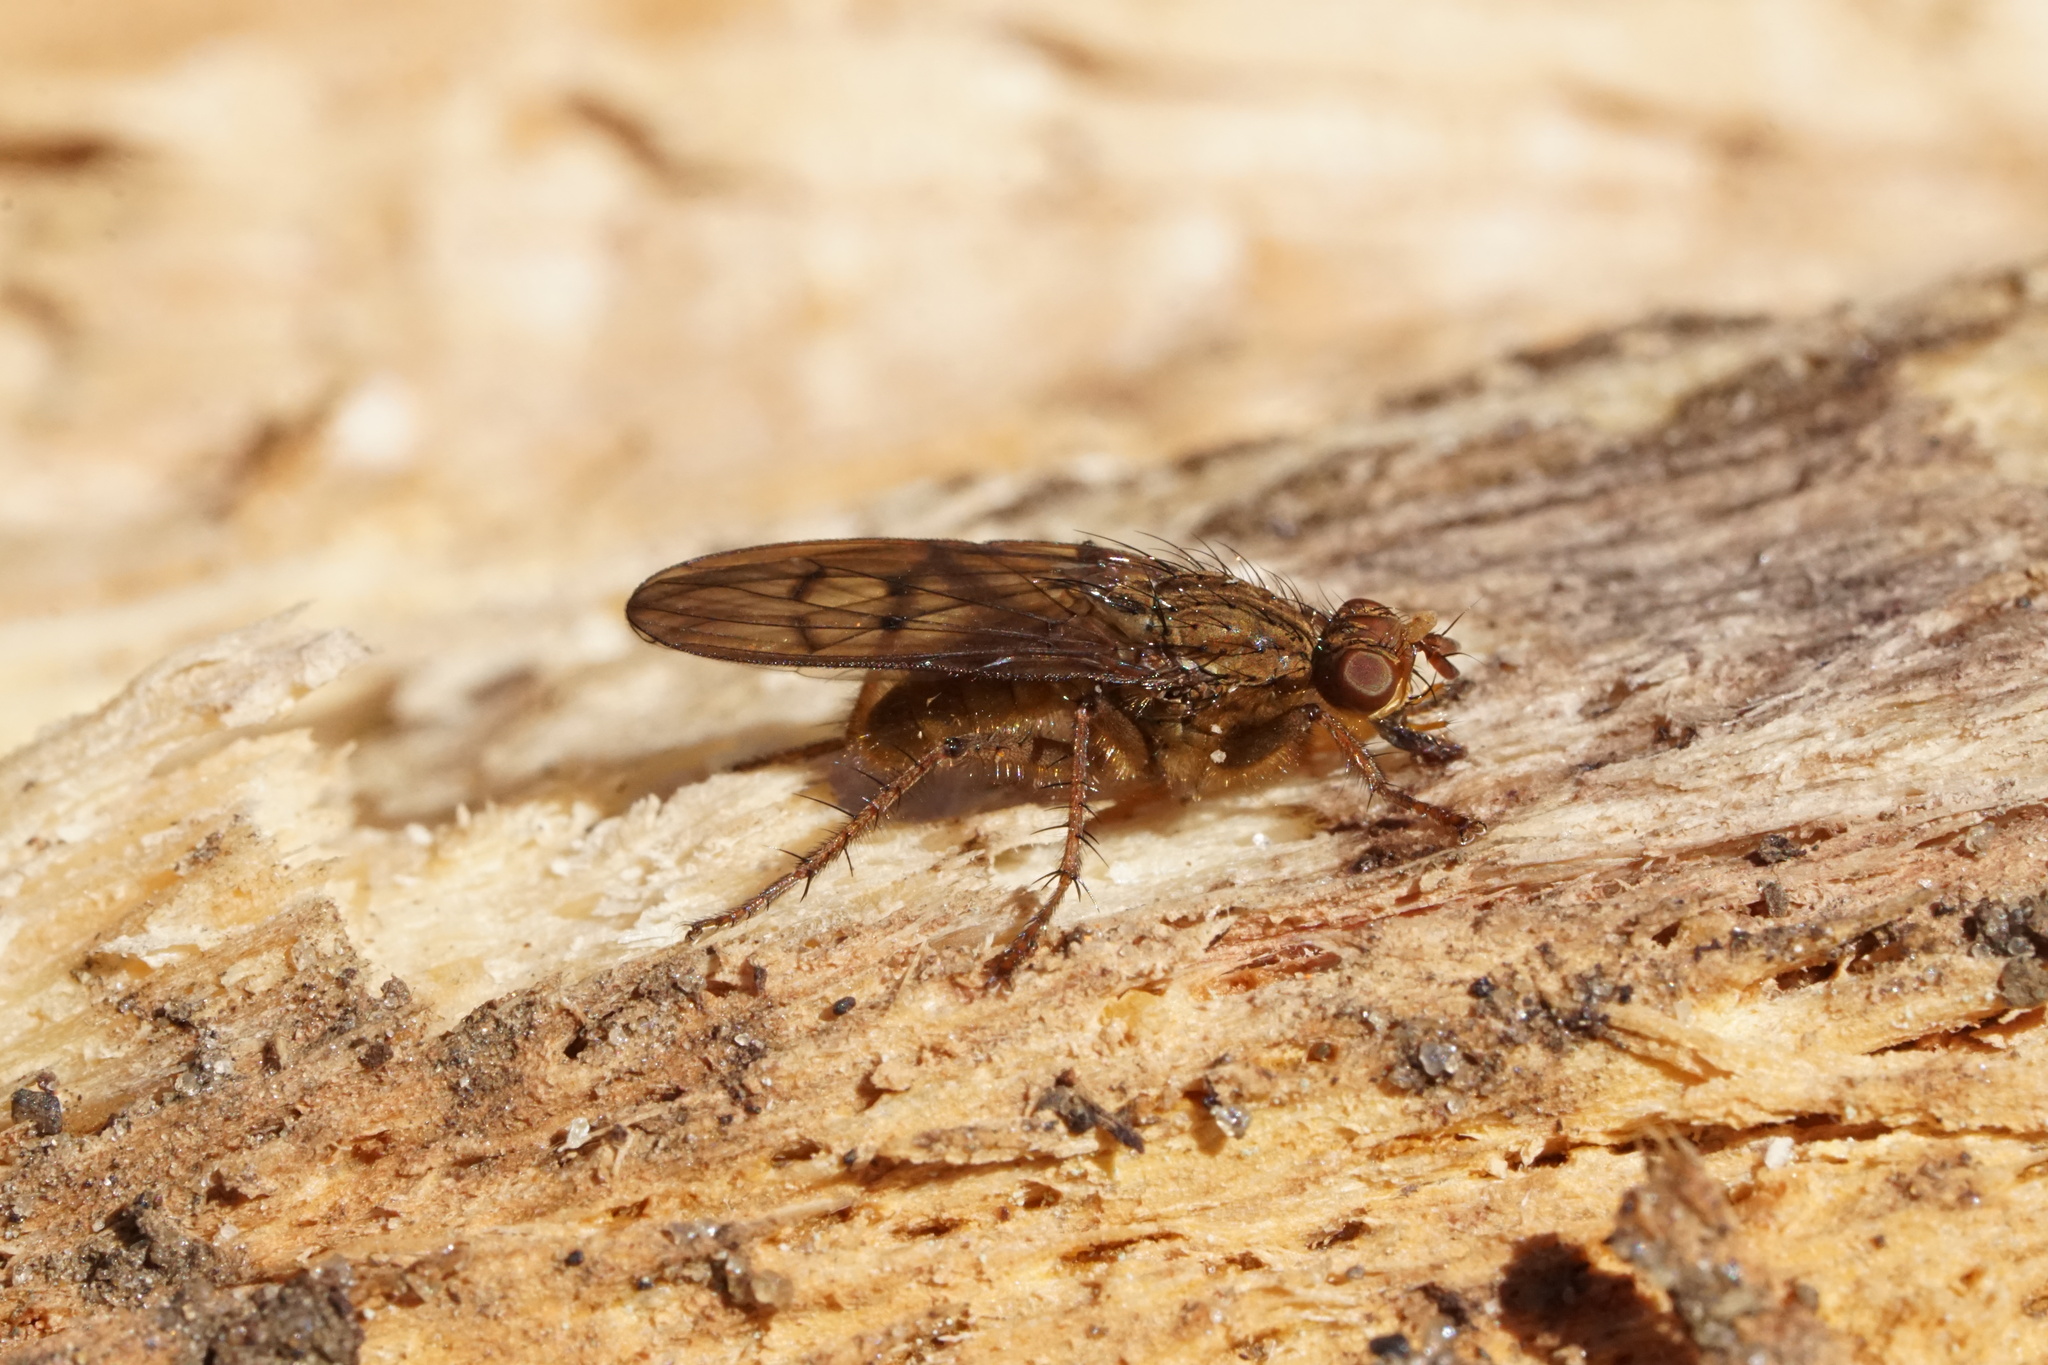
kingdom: Animalia
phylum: Arthropoda
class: Insecta
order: Diptera
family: Scathophagidae
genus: Scathophaga
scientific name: Scathophaga furcata
